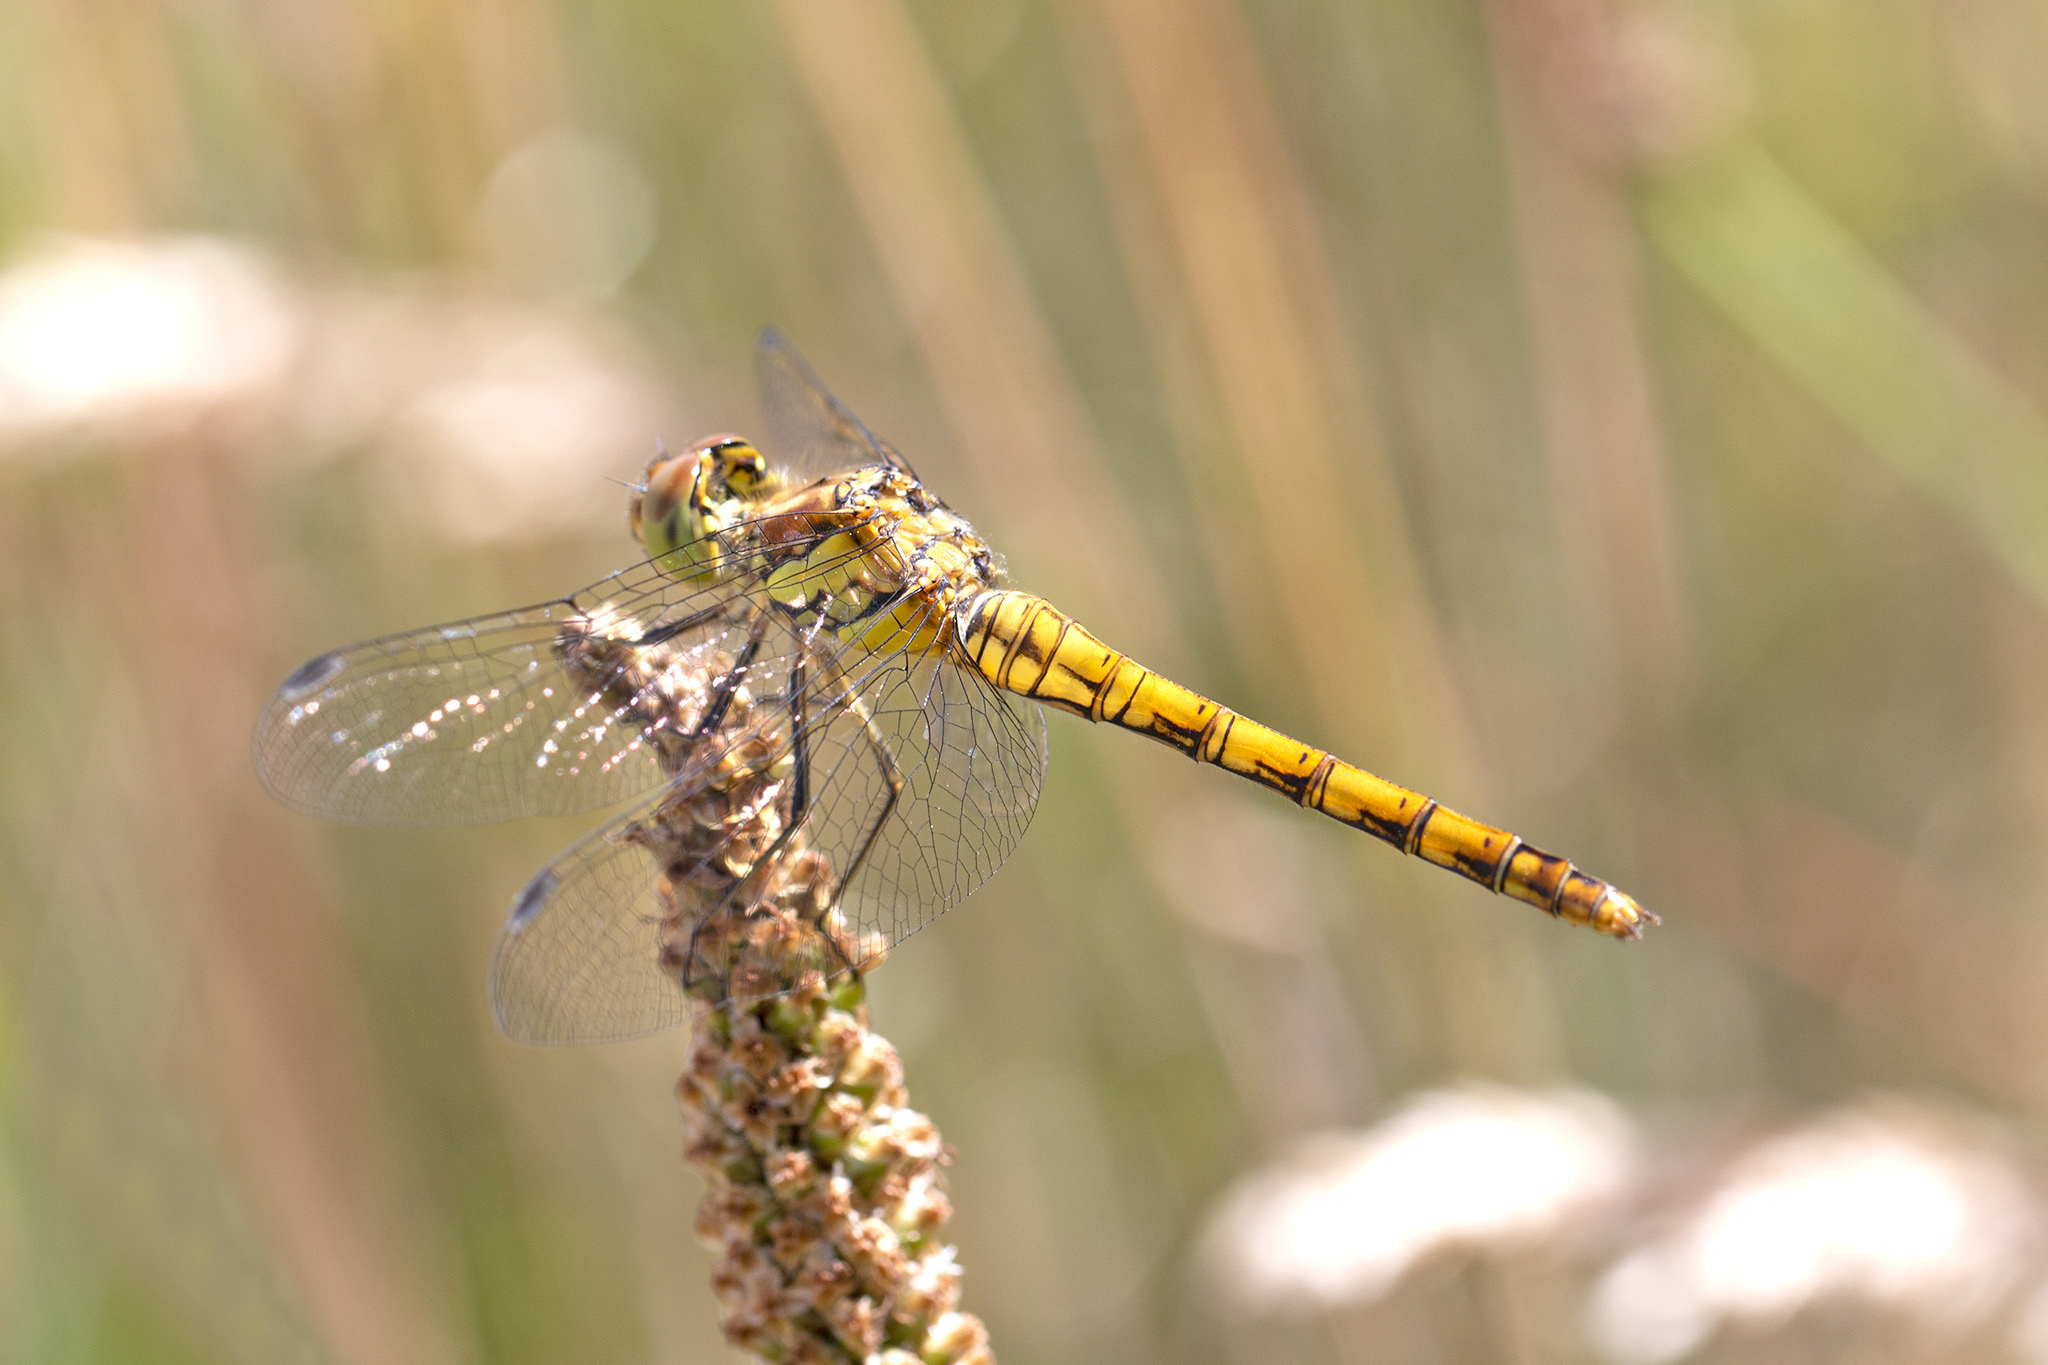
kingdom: Animalia
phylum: Arthropoda
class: Insecta
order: Odonata
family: Libellulidae
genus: Sympetrum
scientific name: Sympetrum striolatum
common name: Common darter
